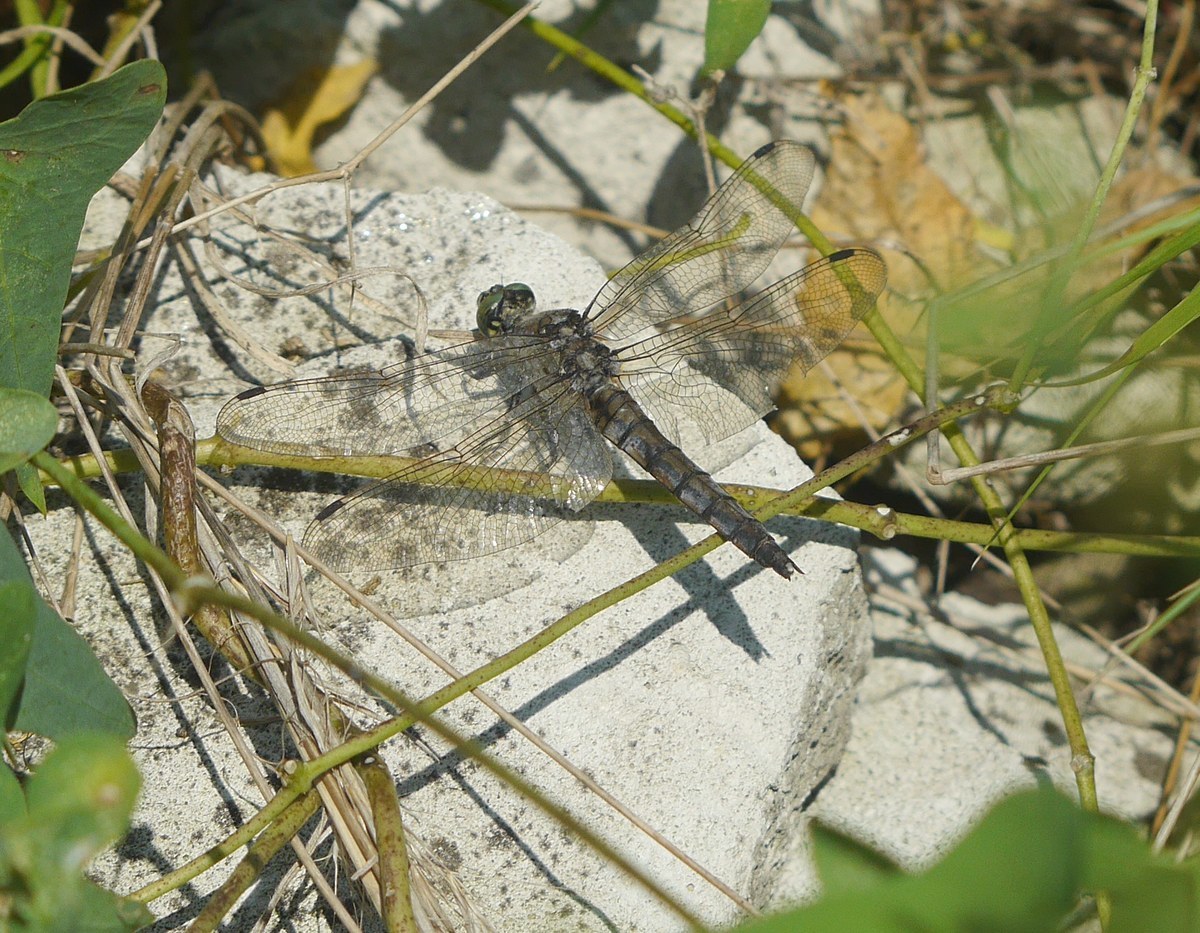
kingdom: Animalia
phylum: Arthropoda
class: Insecta
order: Odonata
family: Libellulidae
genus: Orthetrum
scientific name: Orthetrum cancellatum
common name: Black-tailed skimmer
